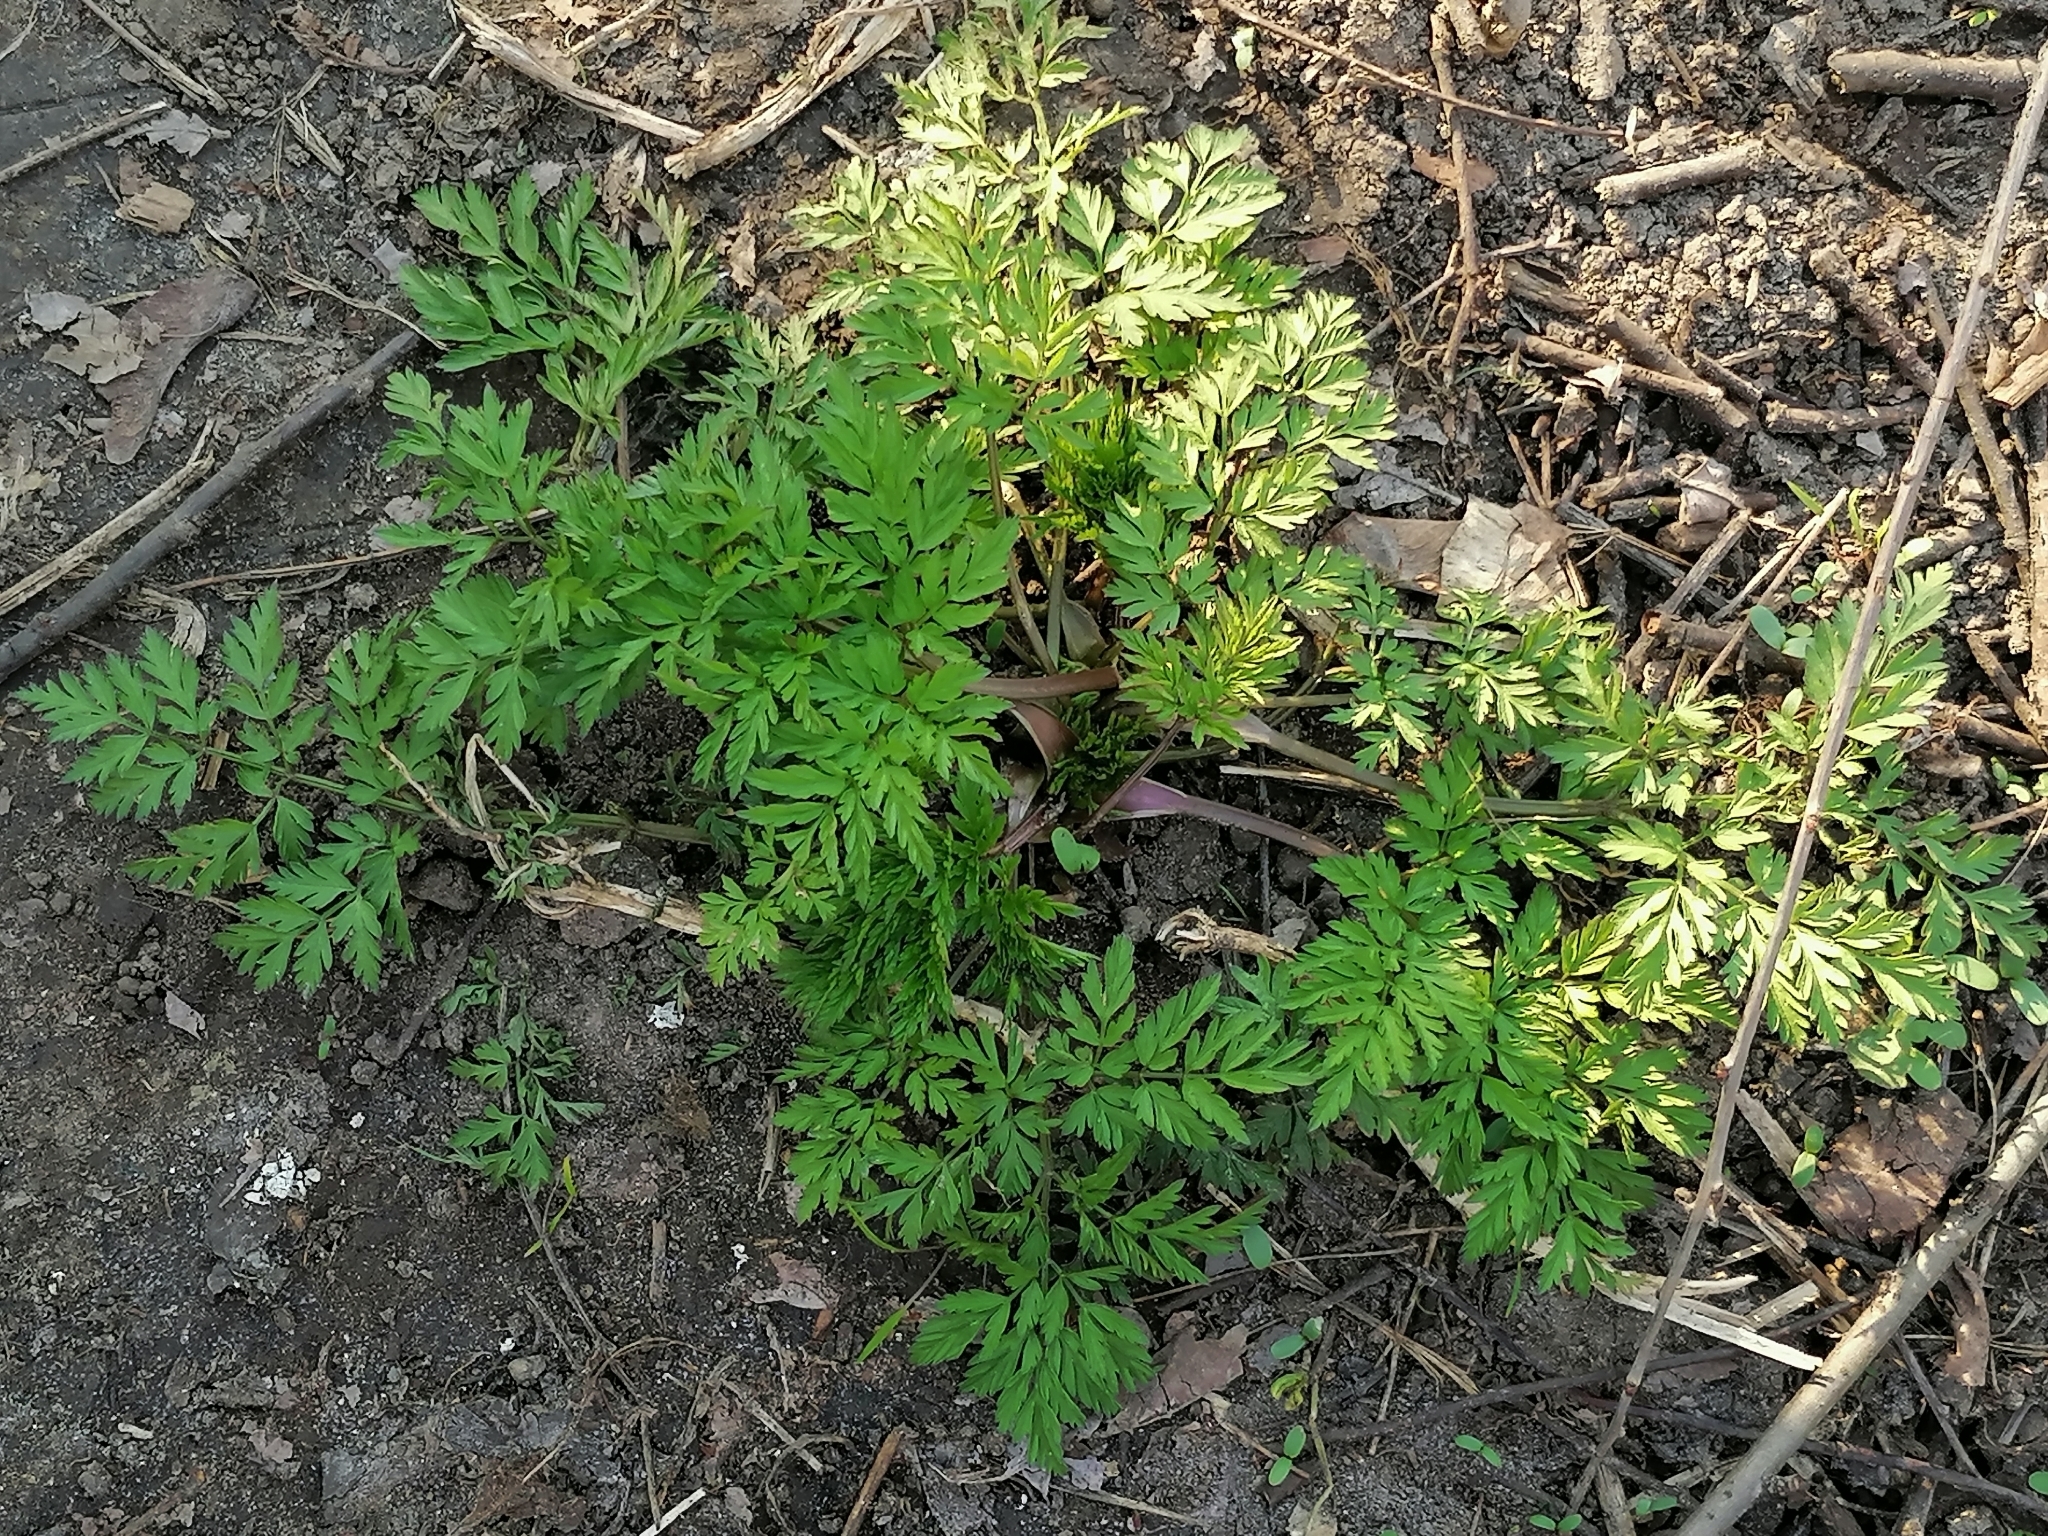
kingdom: Plantae
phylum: Tracheophyta
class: Magnoliopsida
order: Apiales
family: Apiaceae
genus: Anthriscus
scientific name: Anthriscus sylvestris
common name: Cow parsley
